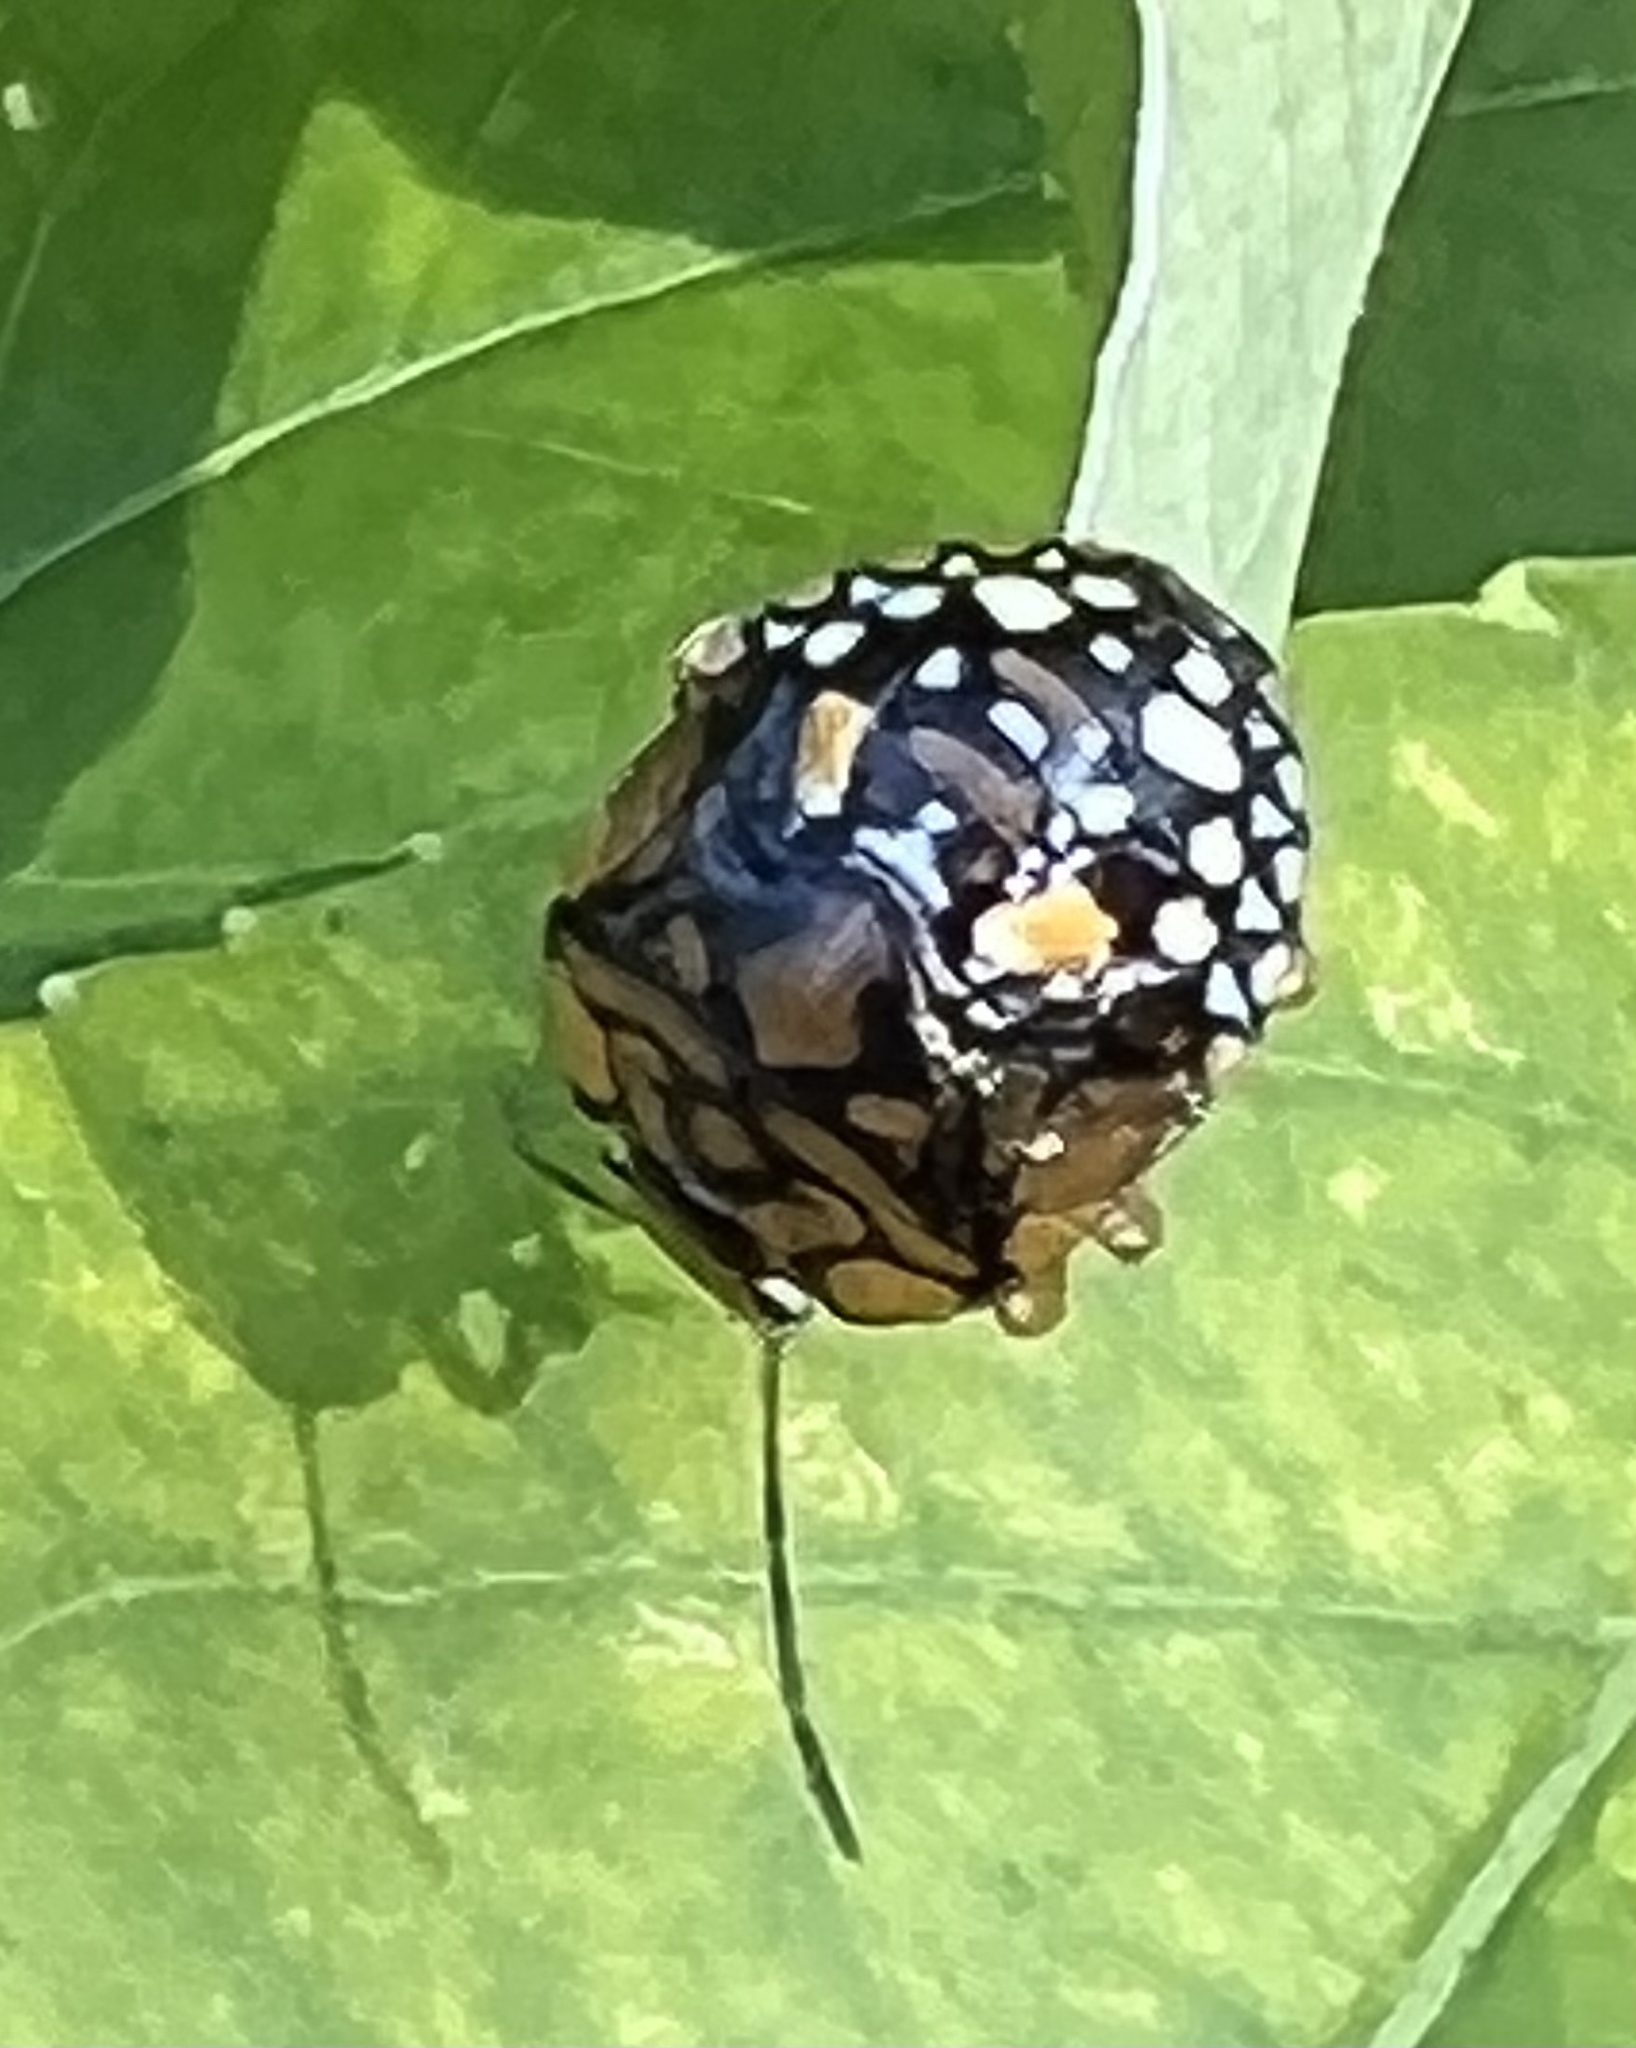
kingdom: Animalia
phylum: Arthropoda
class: Insecta
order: Hemiptera
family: Pentatomidae
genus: Acrosternum
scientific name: Acrosternum marginatum
